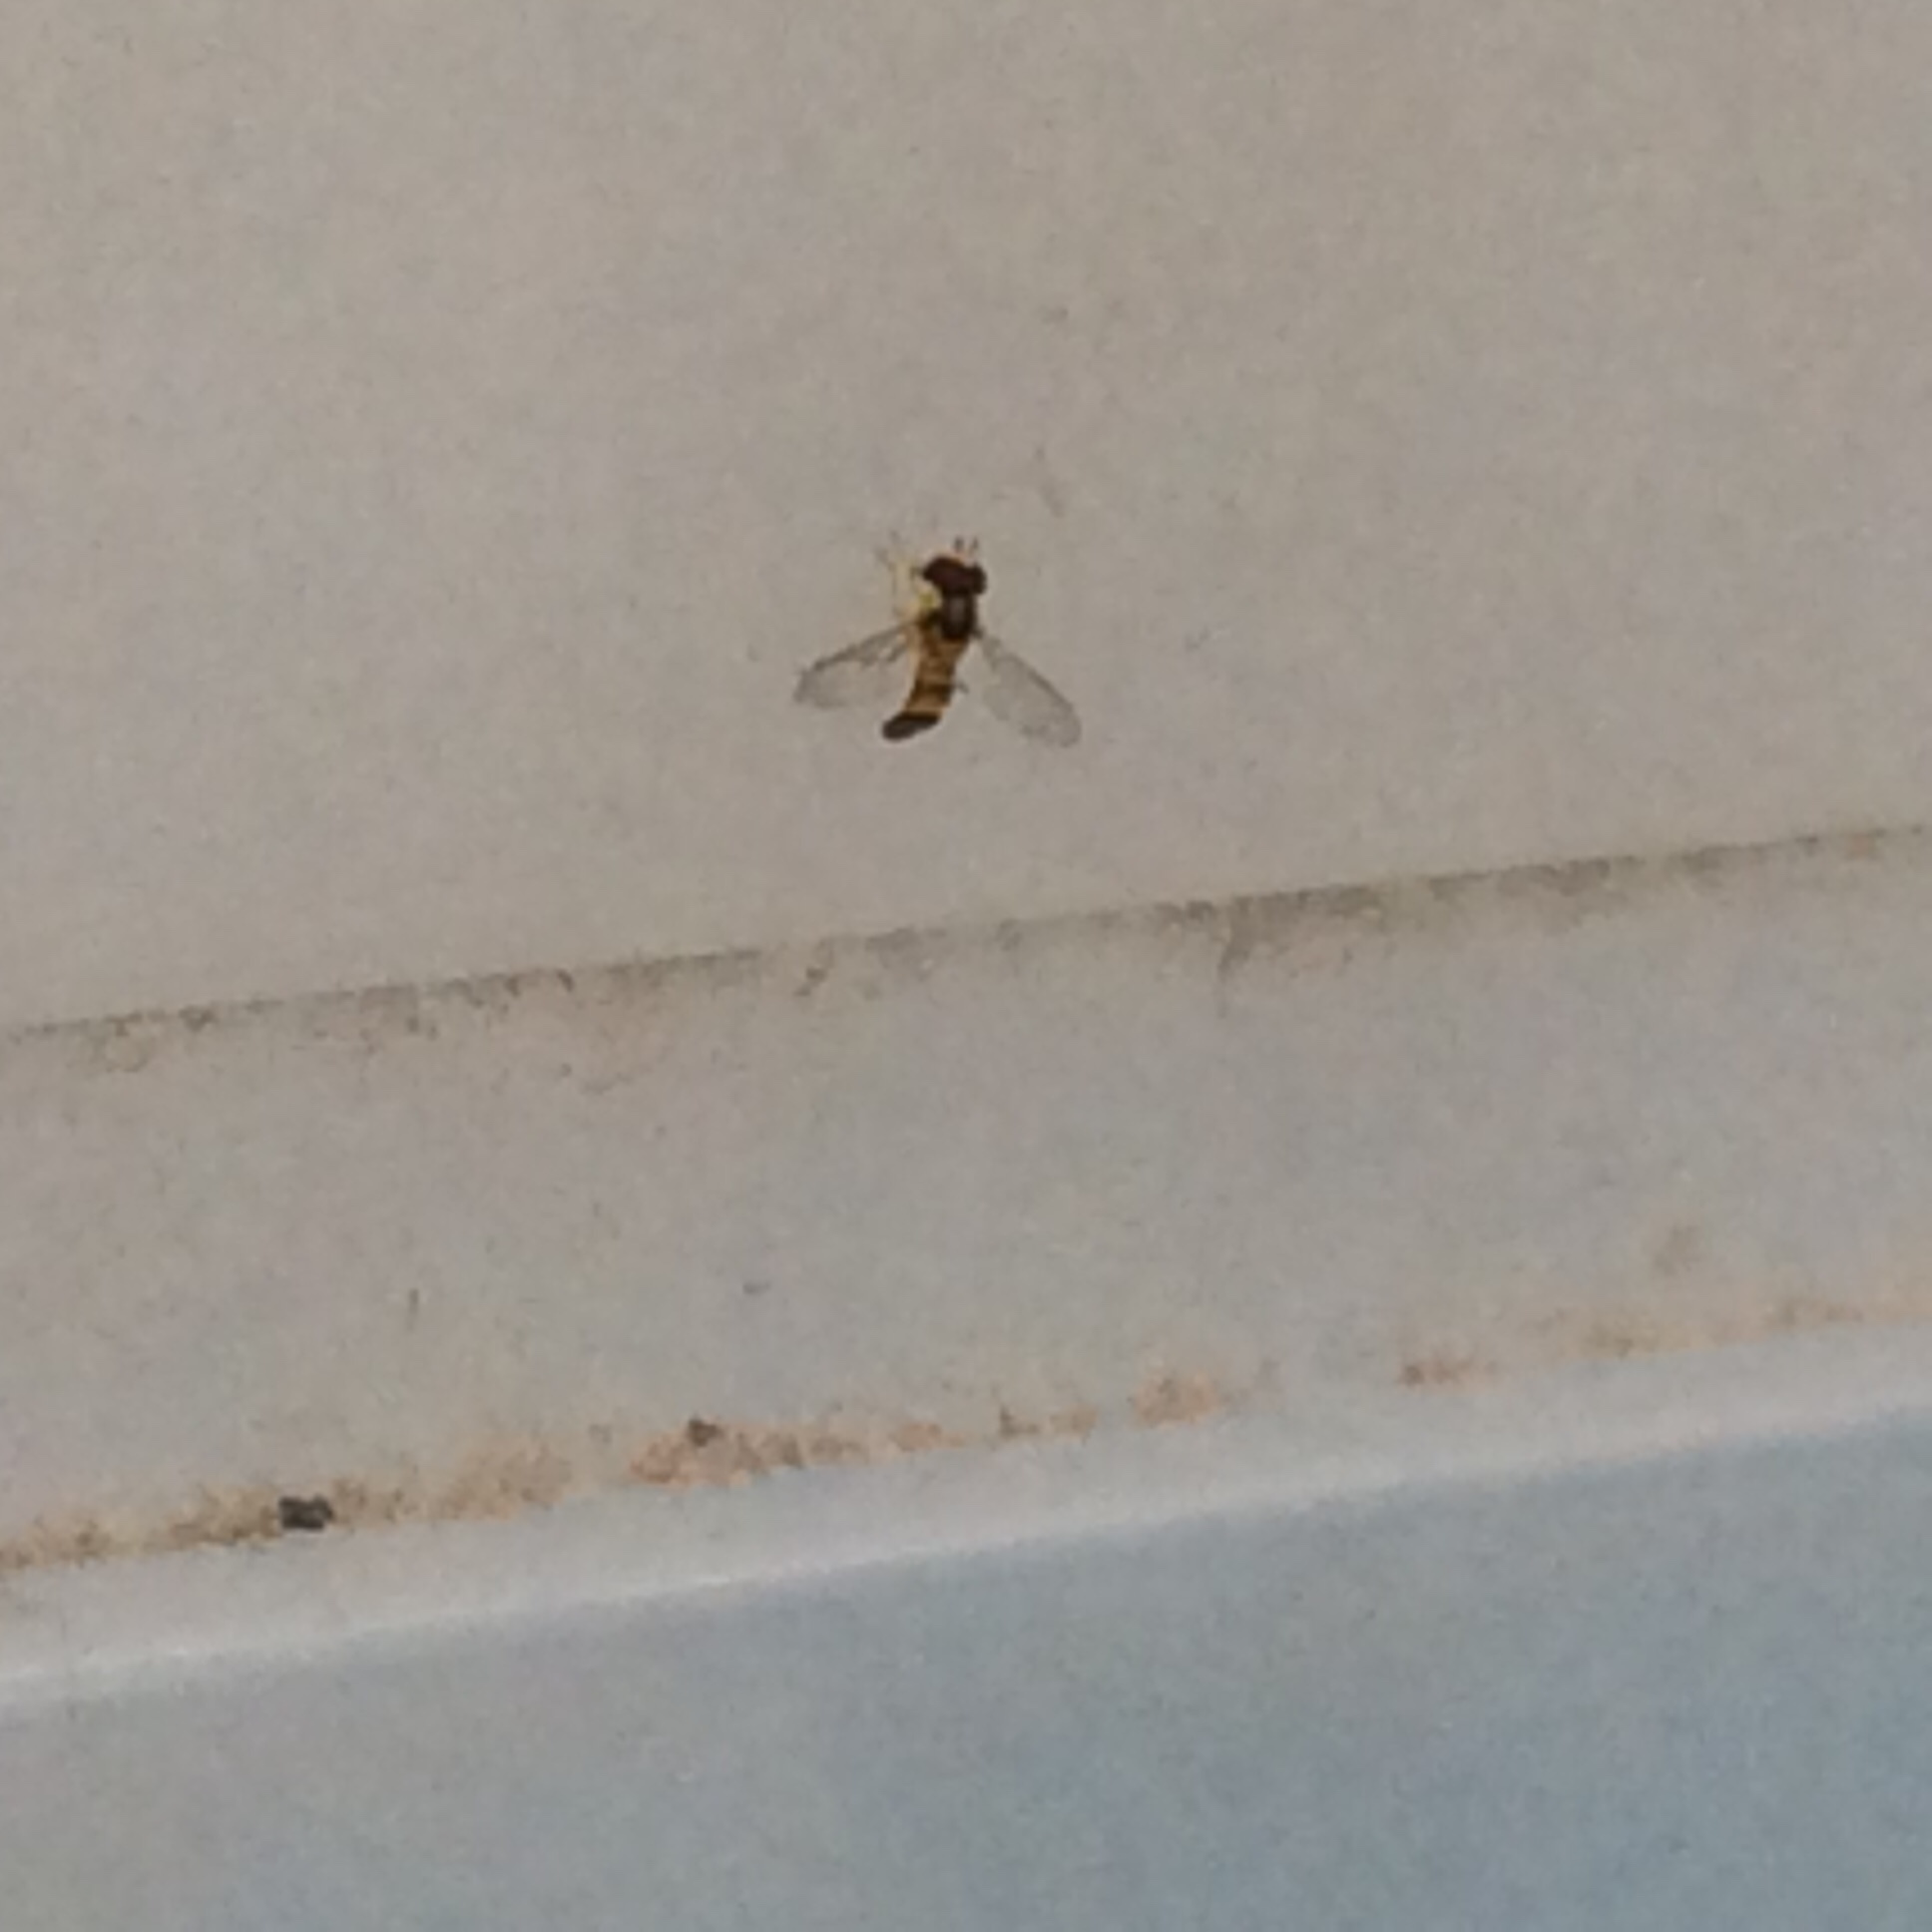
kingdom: Animalia
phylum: Arthropoda
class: Insecta
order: Diptera
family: Syrphidae
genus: Allograpta
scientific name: Allograpta obliqua
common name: Common oblique syrphid
